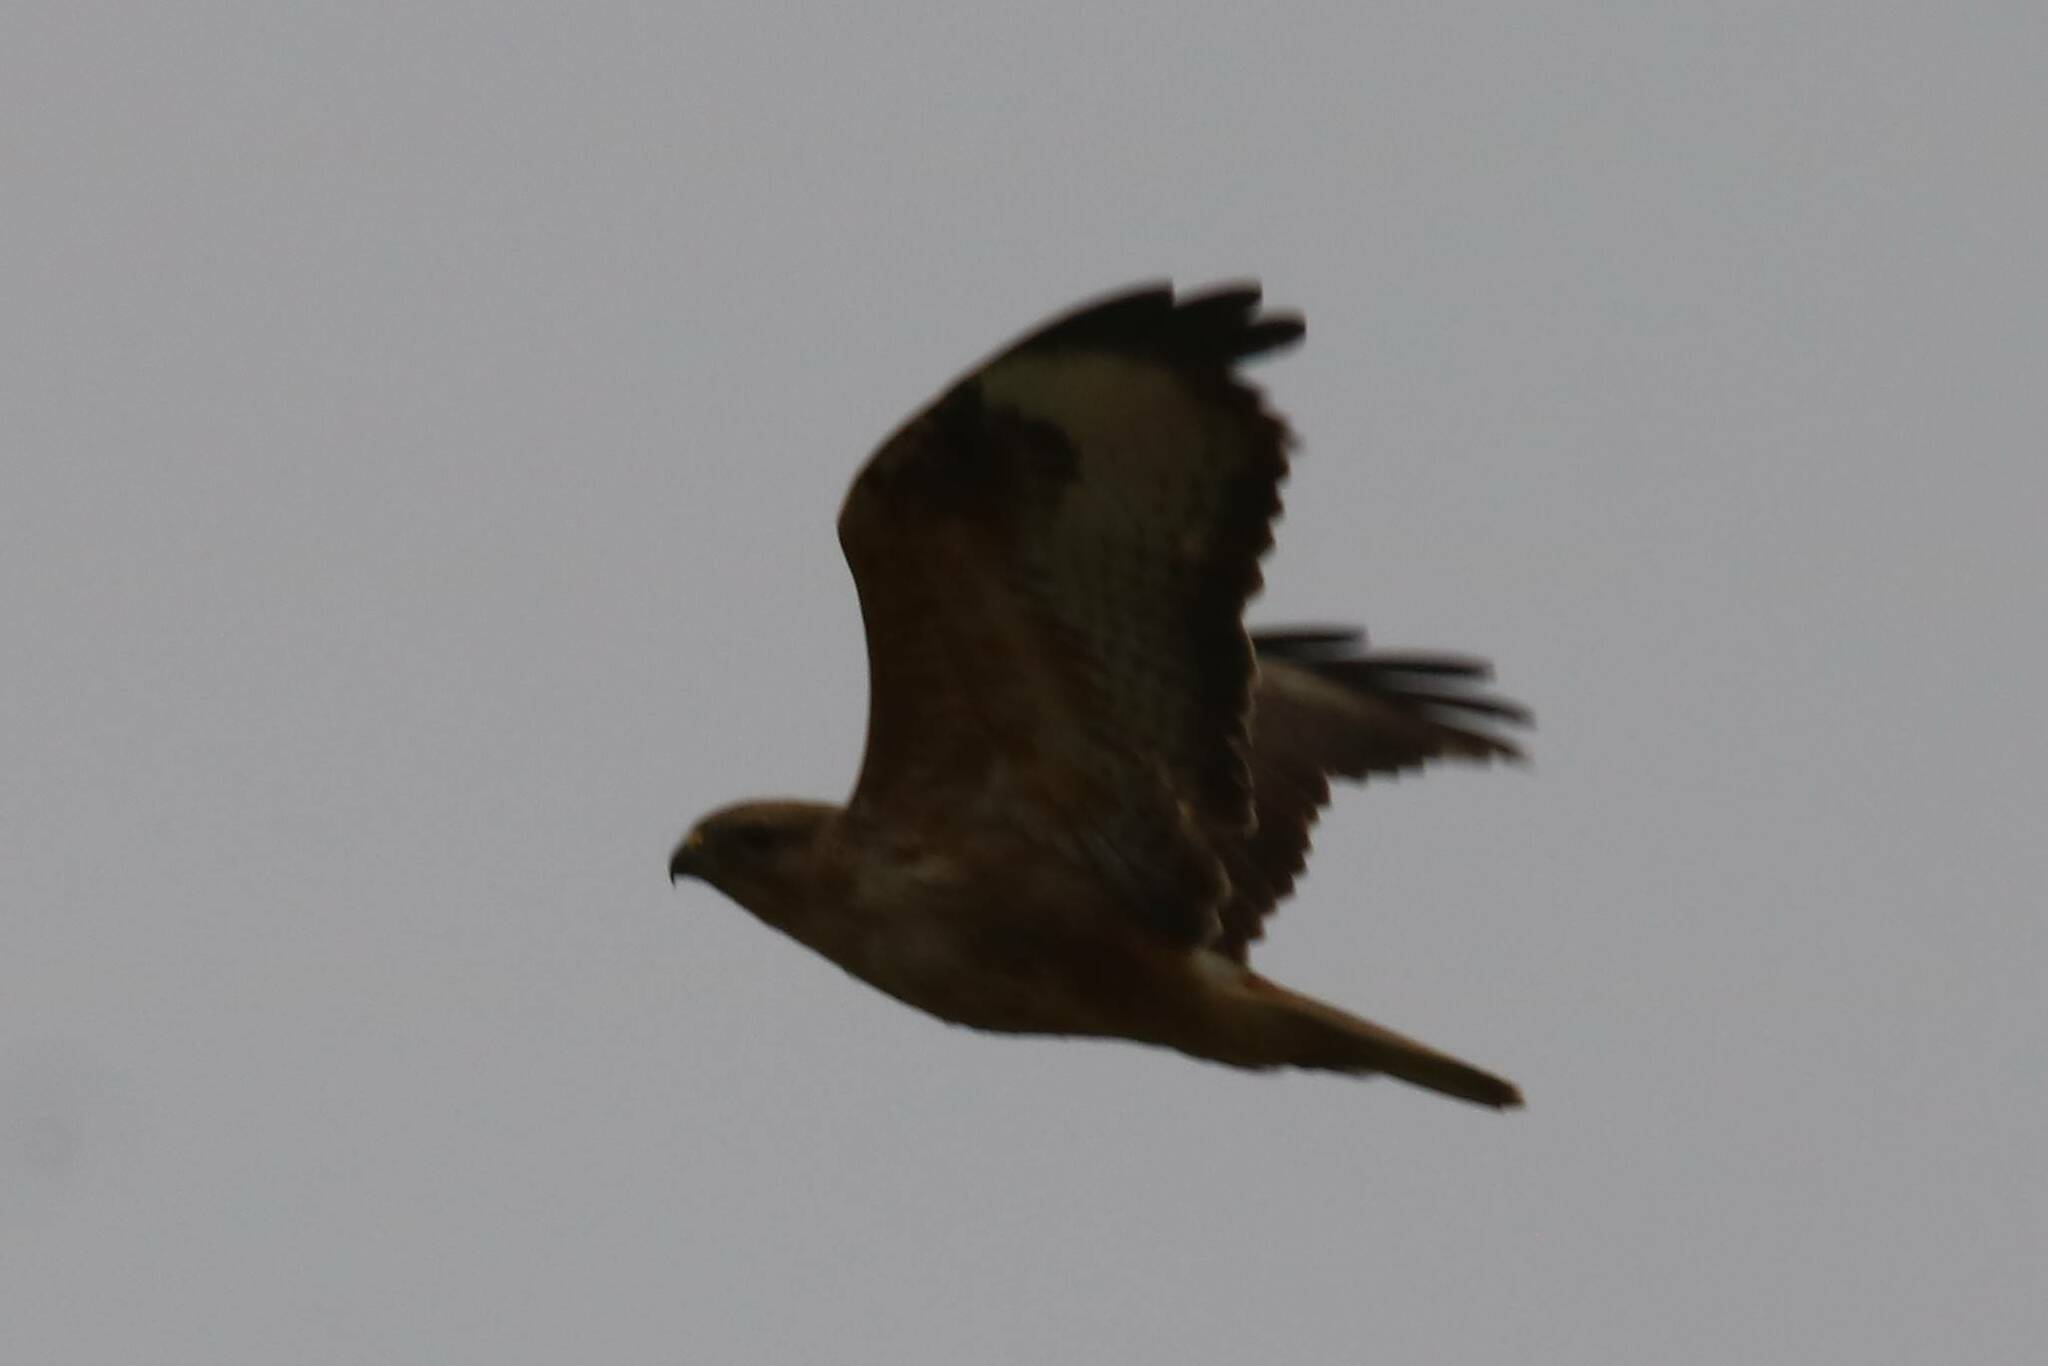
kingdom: Animalia
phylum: Chordata
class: Aves
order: Accipitriformes
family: Accipitridae
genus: Buteo
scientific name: Buteo rufinus
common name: Long-legged buzzard
